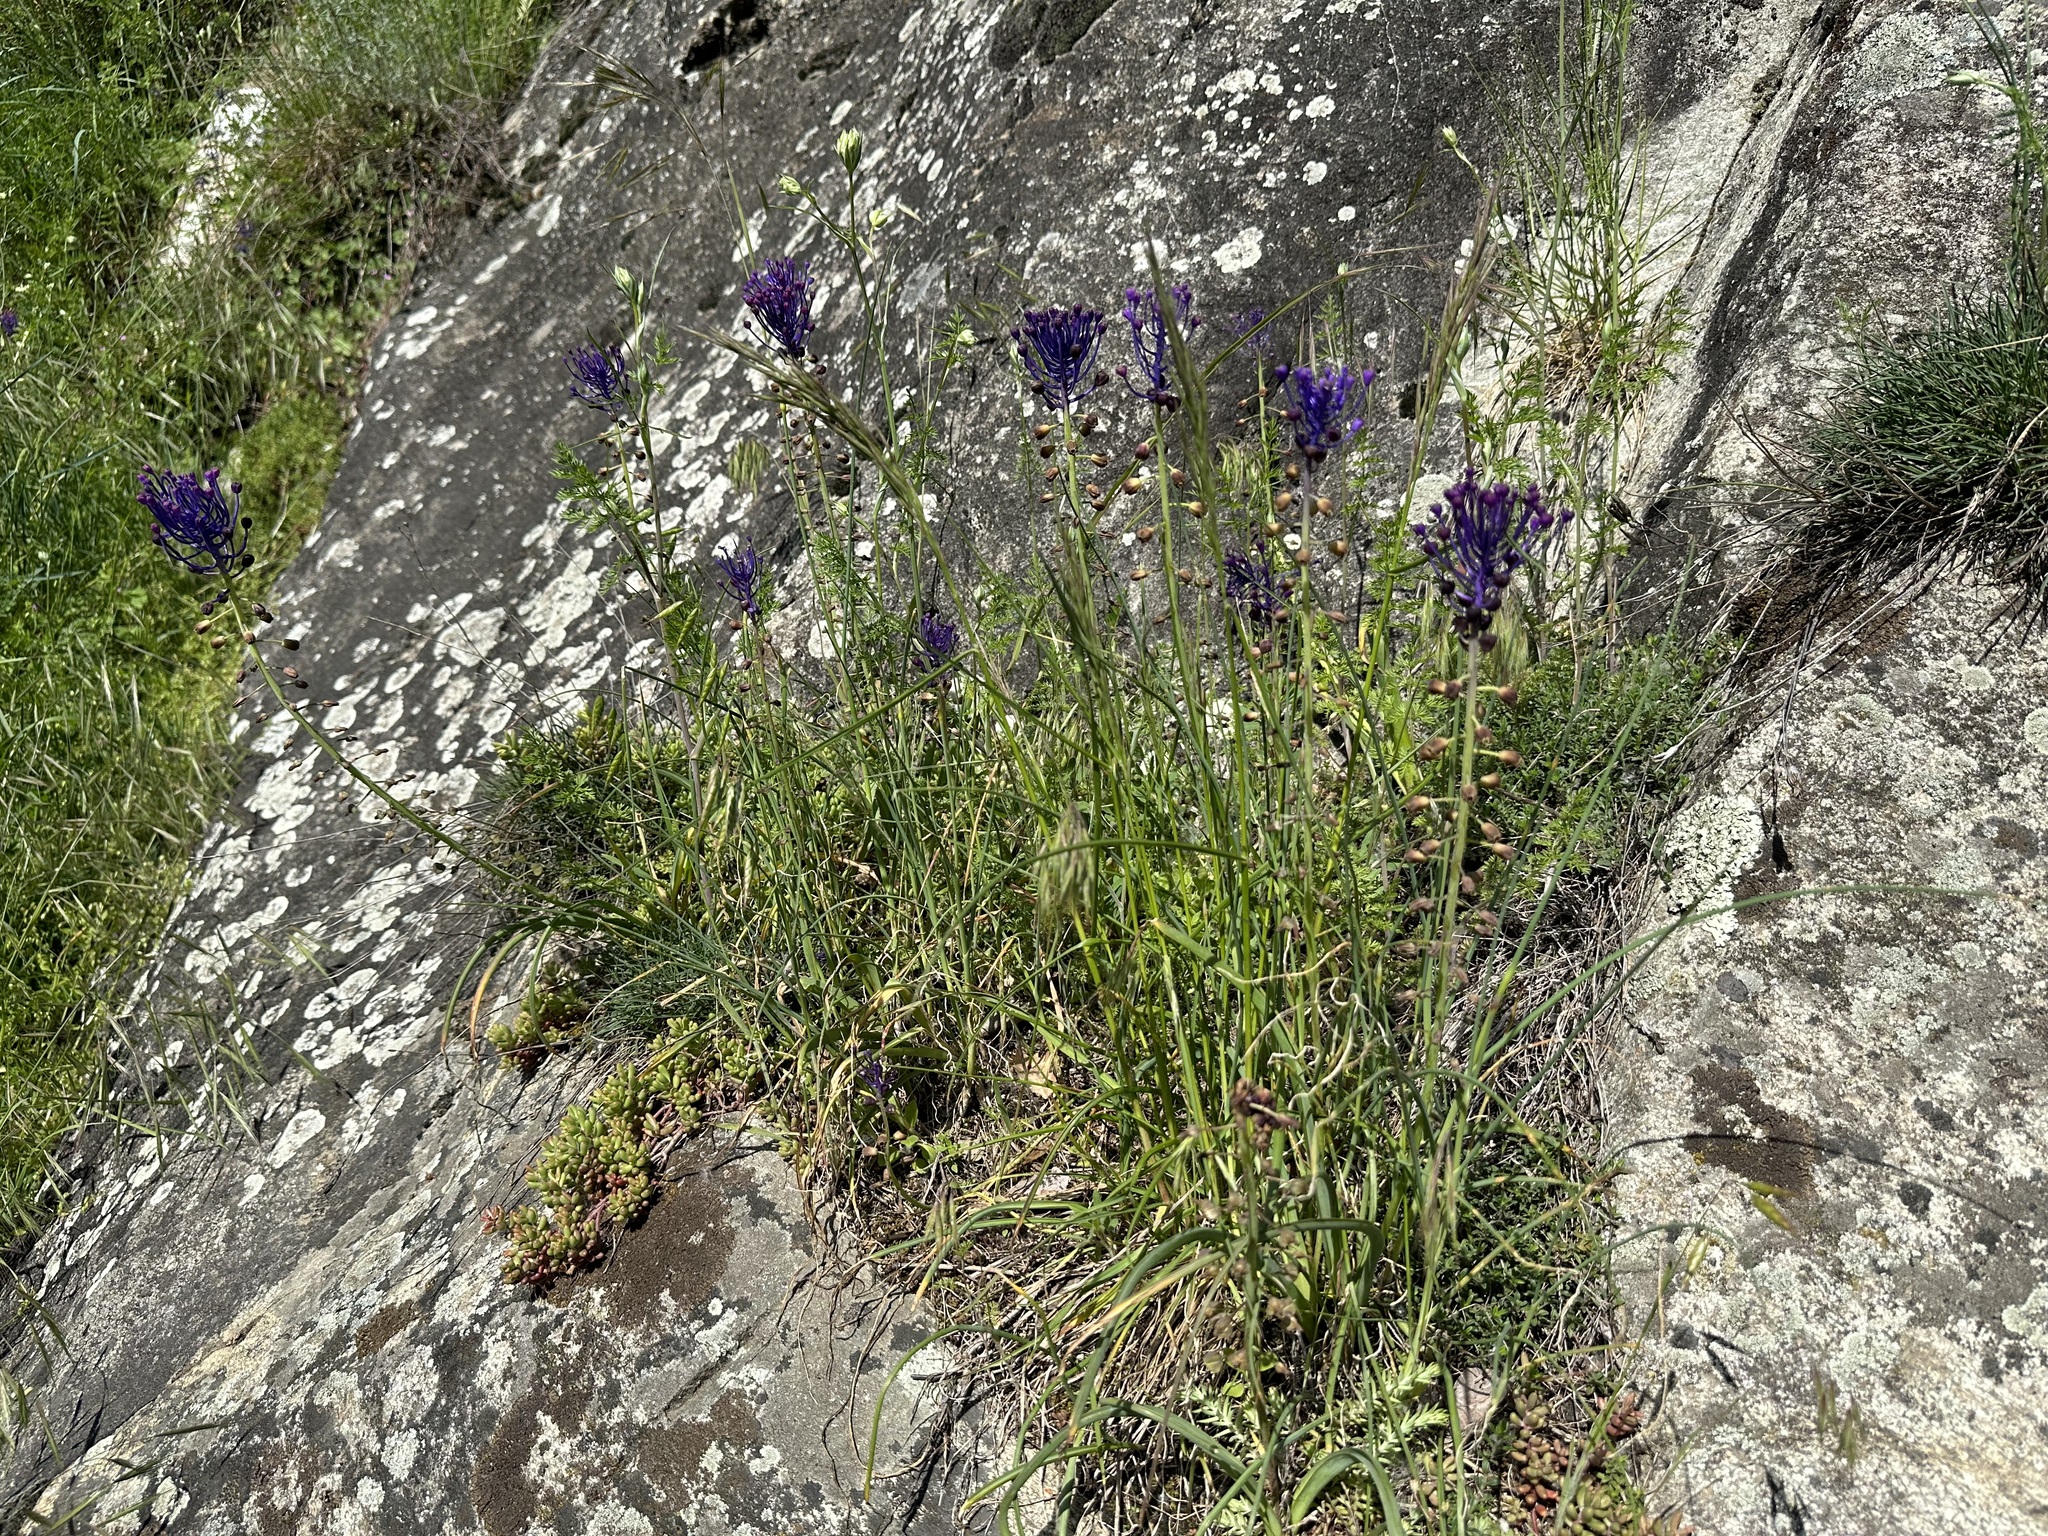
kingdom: Plantae
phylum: Tracheophyta
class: Liliopsida
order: Asparagales
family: Asparagaceae
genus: Muscari
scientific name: Muscari comosum
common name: Tassel hyacinth
